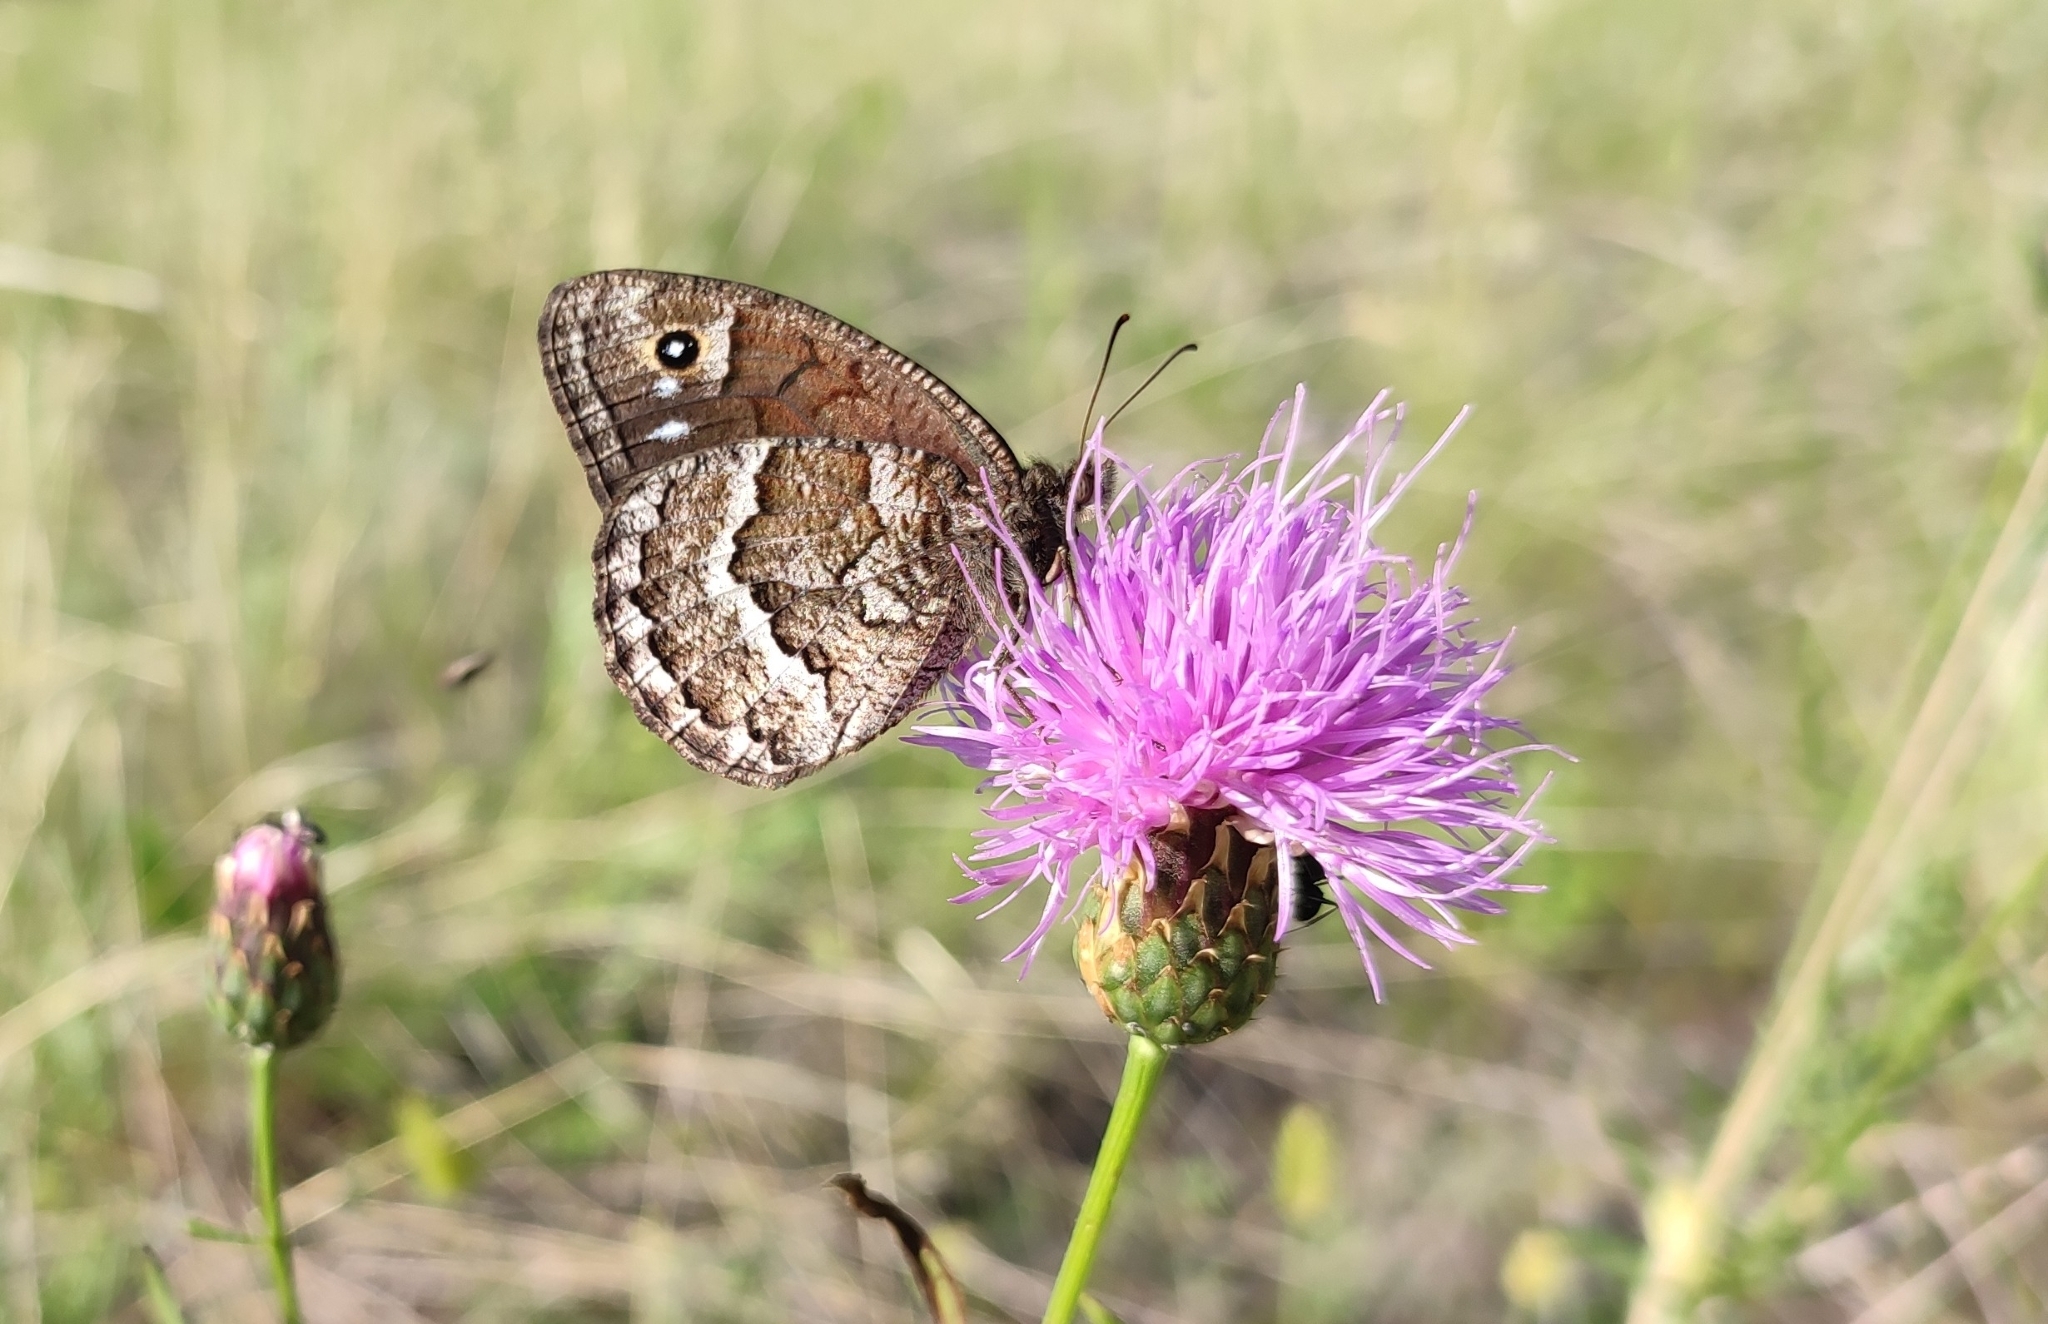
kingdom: Animalia
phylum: Arthropoda
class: Insecta
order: Lepidoptera
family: Nymphalidae
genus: Satyrus
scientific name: Satyrus ferula
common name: Great sooty satyr
